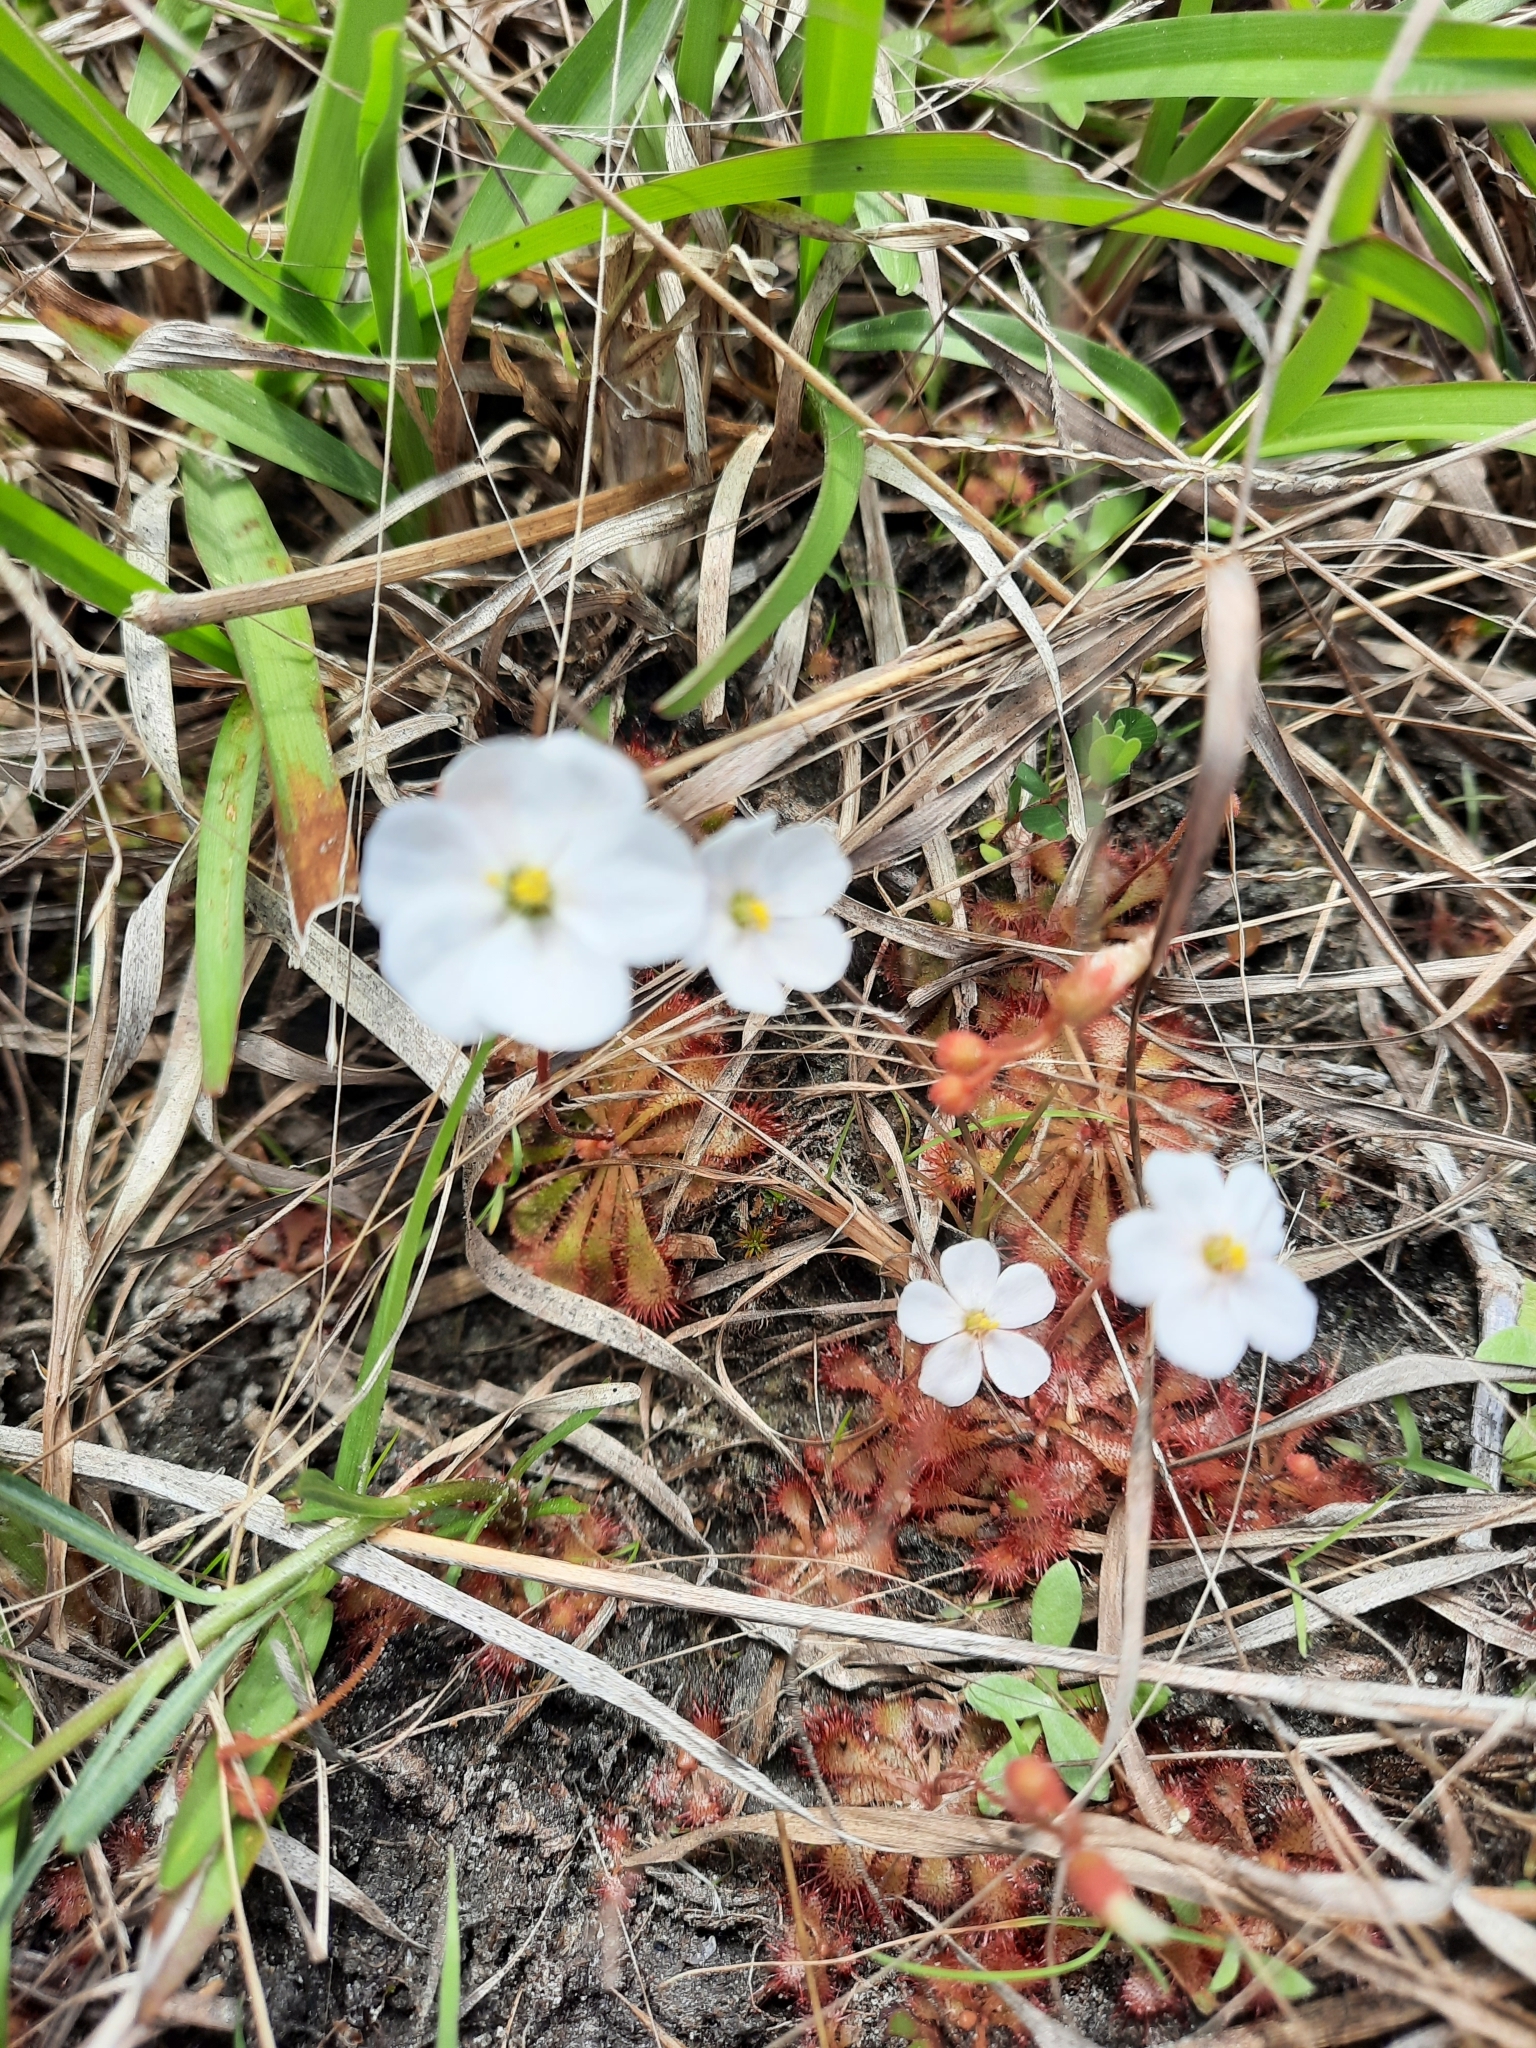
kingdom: Plantae
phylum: Tracheophyta
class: Magnoliopsida
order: Caryophyllales
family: Droseraceae
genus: Drosera
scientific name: Drosera brevifolia
